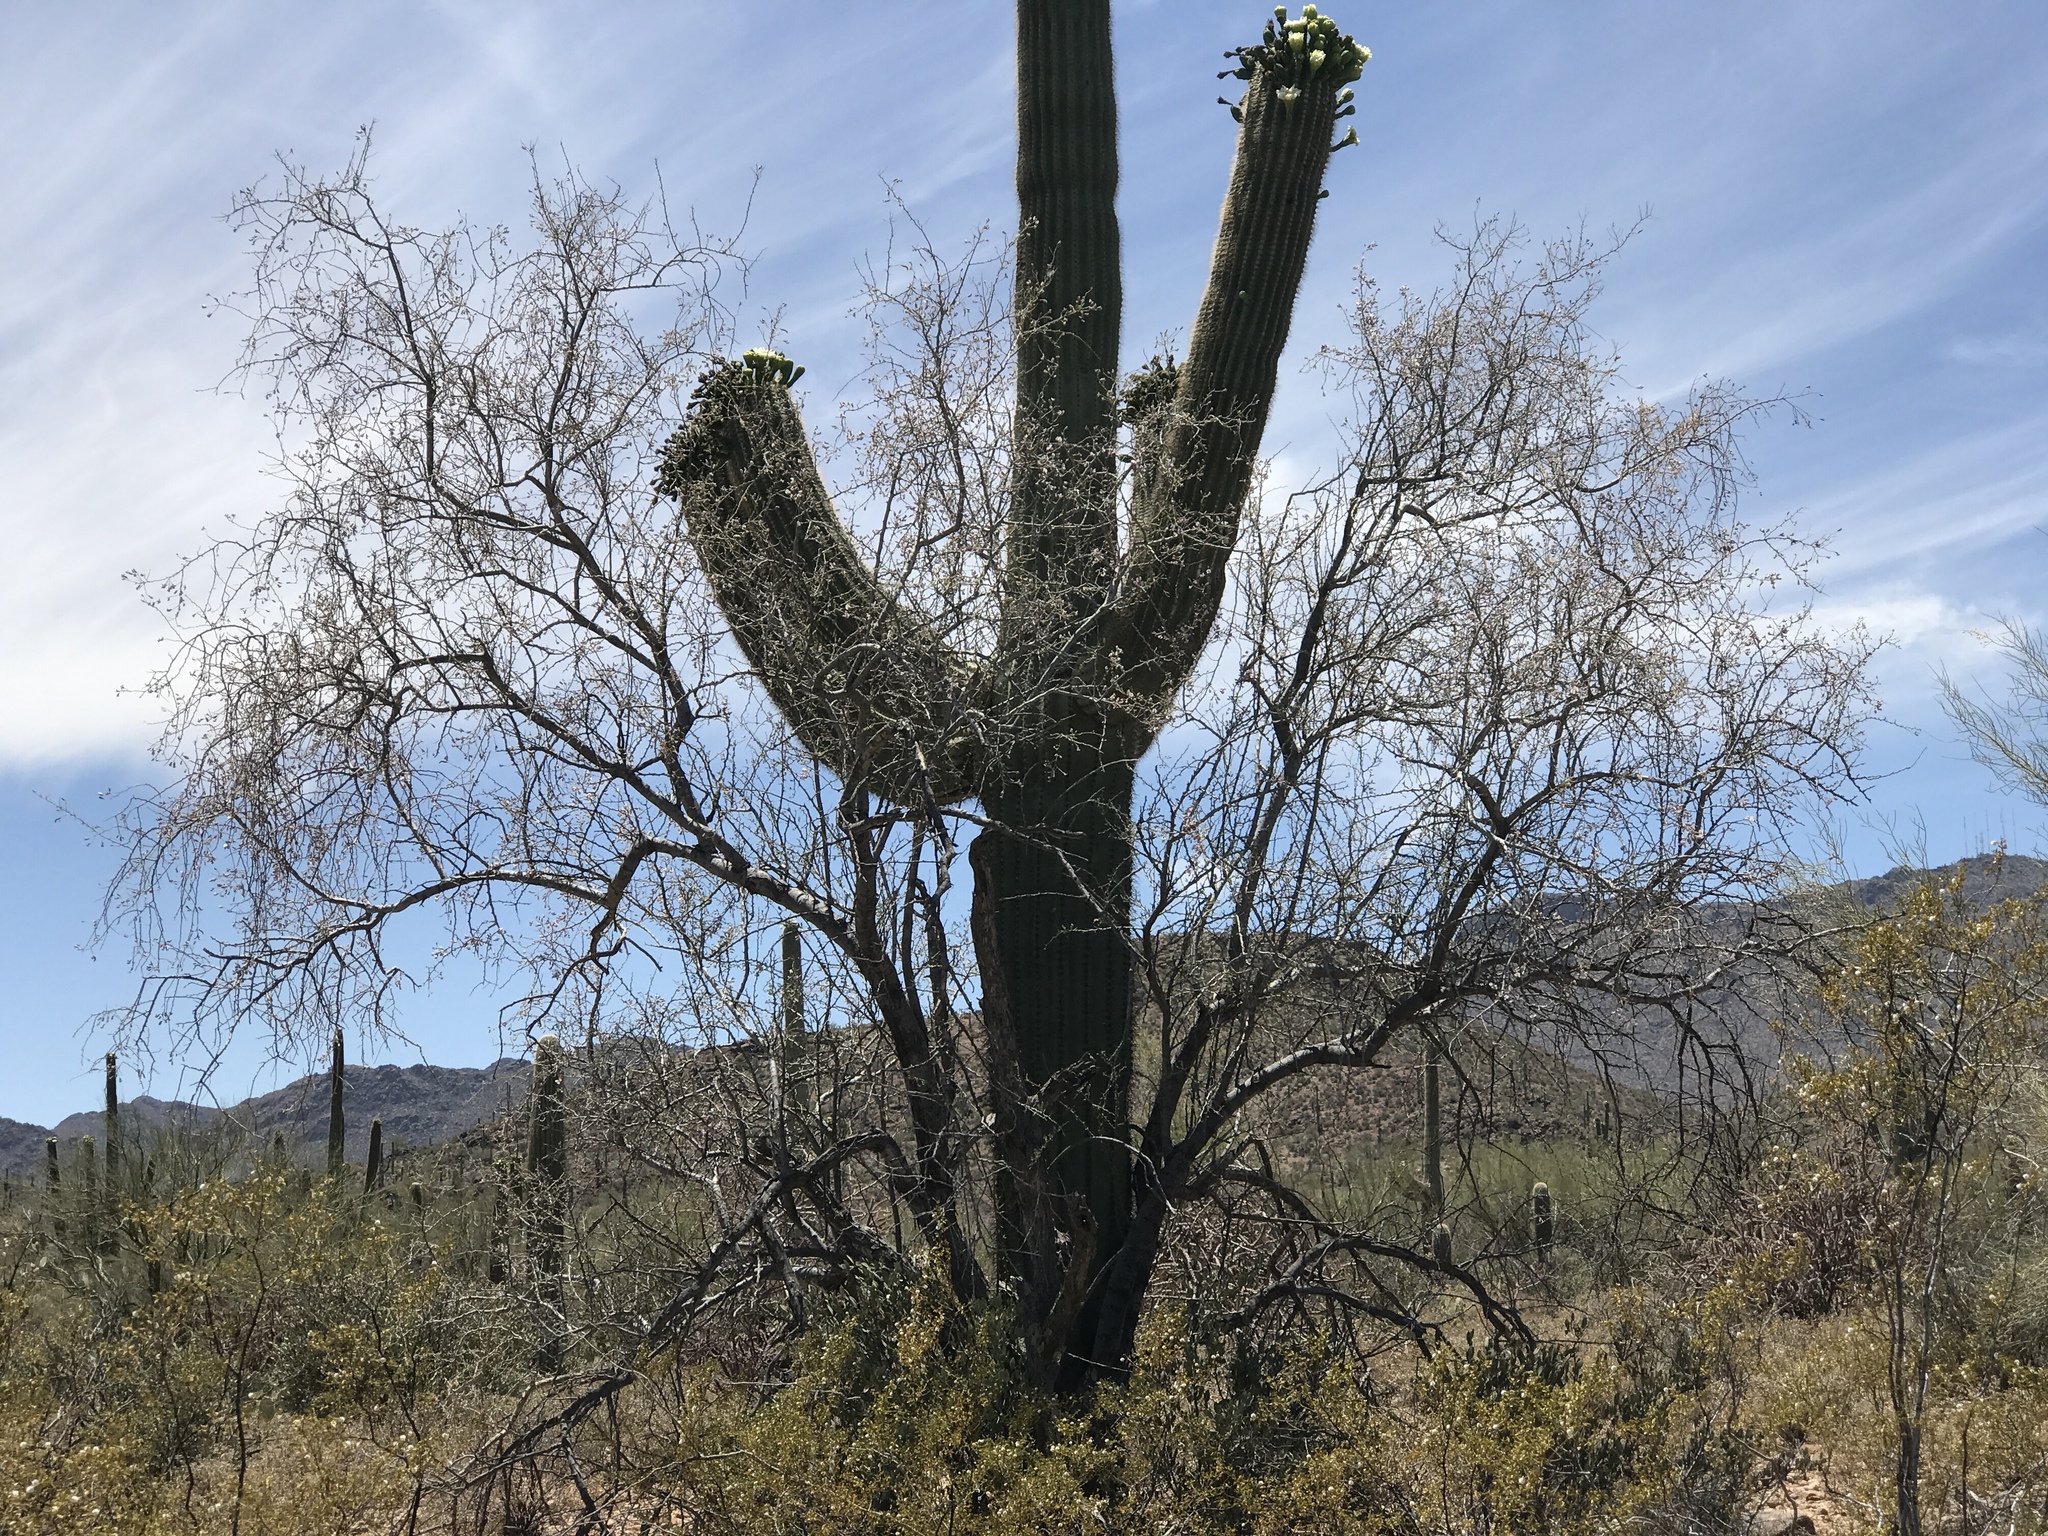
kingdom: Plantae
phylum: Tracheophyta
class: Magnoliopsida
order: Fabales
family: Fabaceae
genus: Olneya
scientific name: Olneya tesota
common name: Desert ironwood
